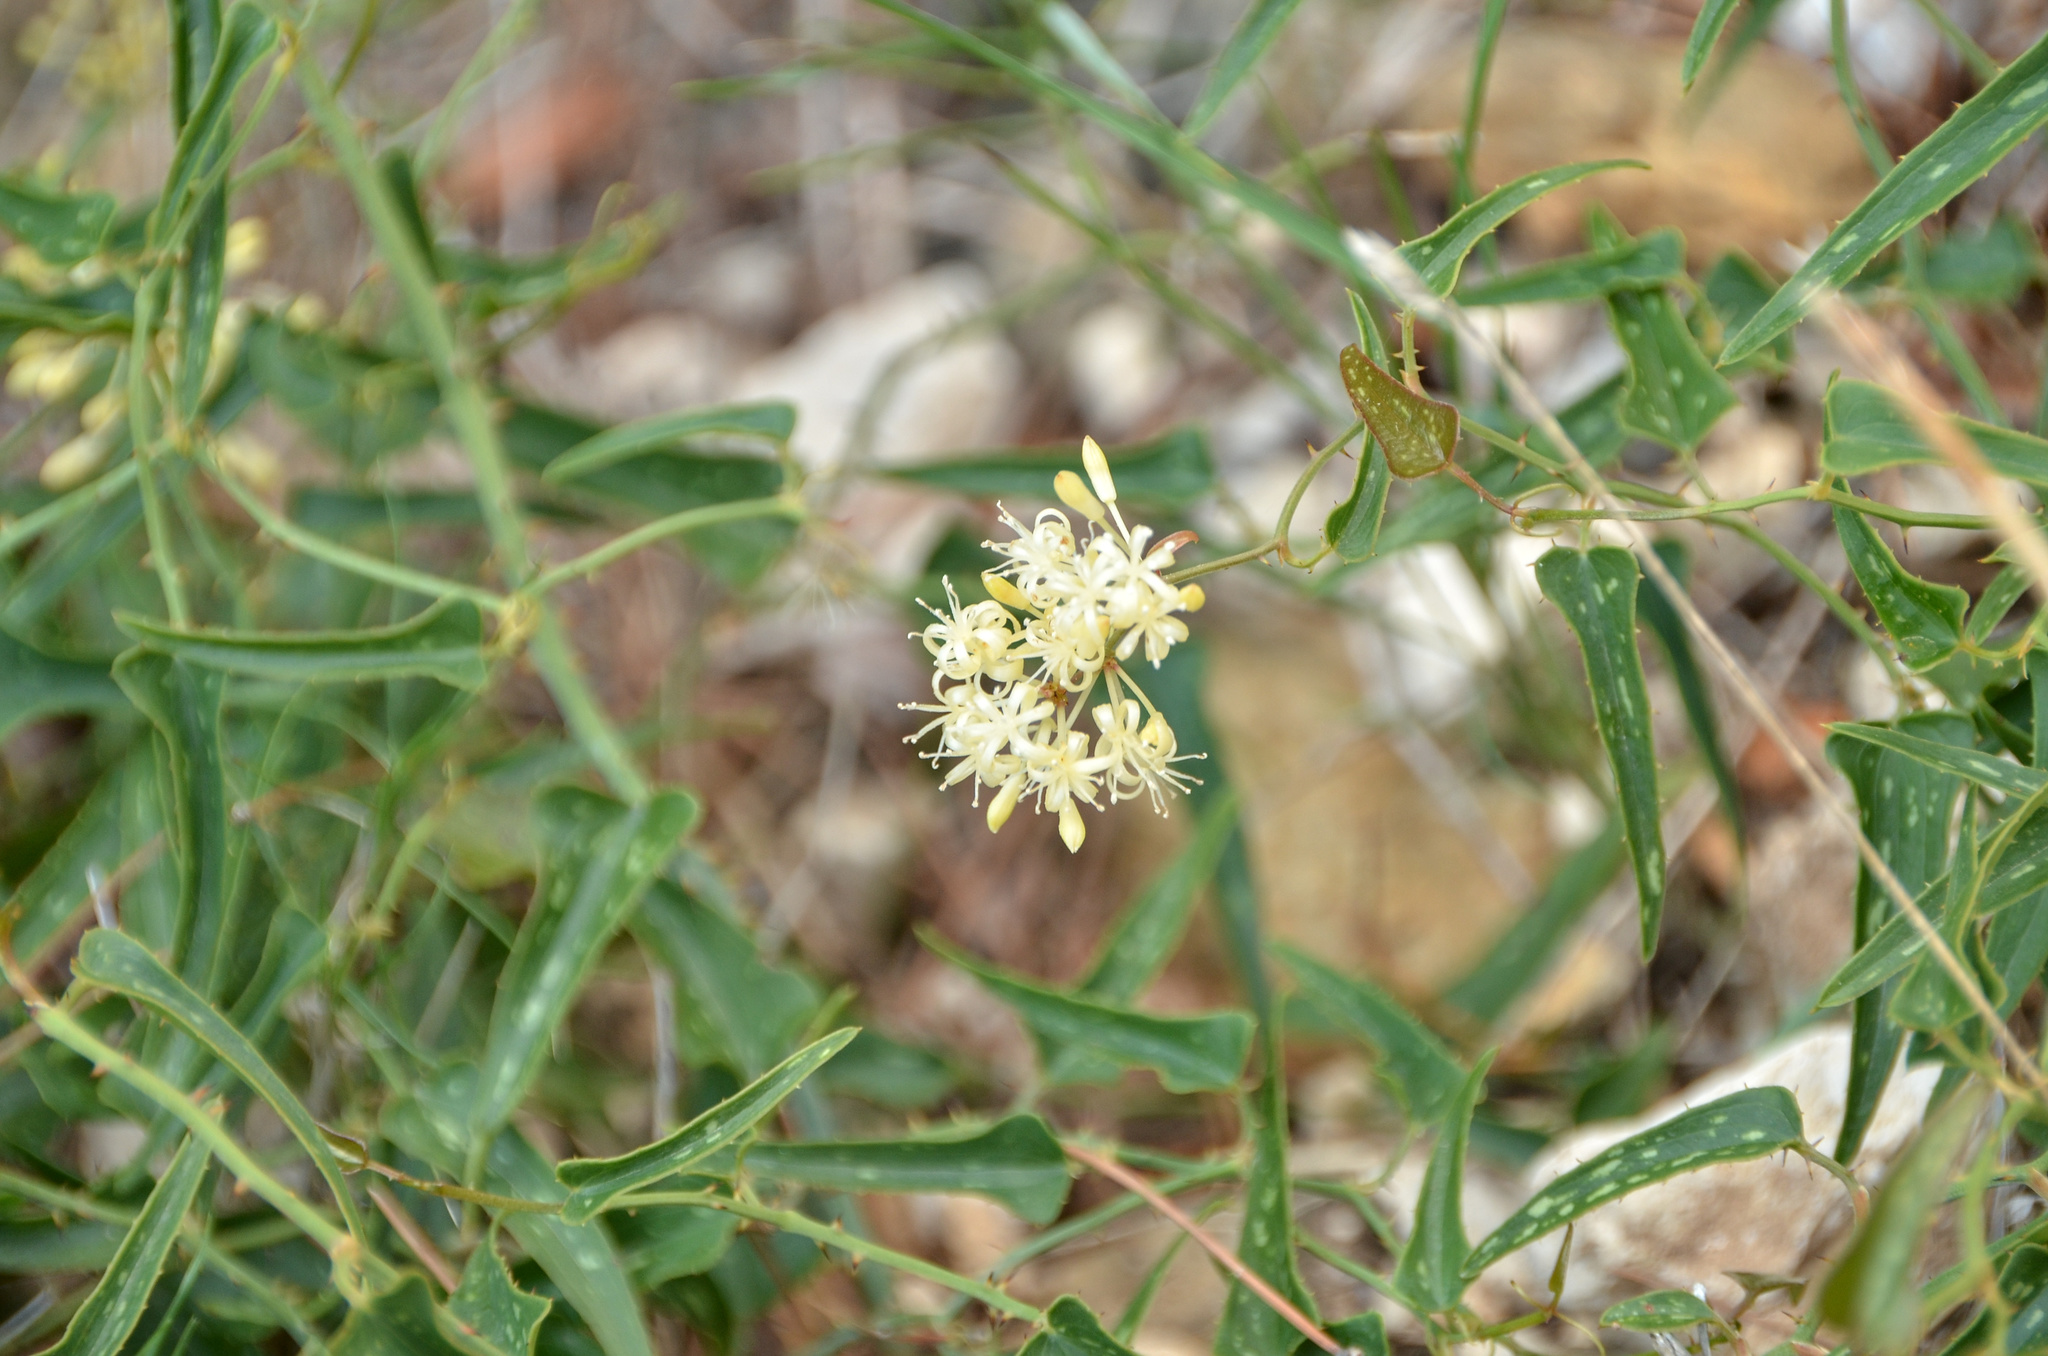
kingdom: Plantae
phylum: Tracheophyta
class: Liliopsida
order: Liliales
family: Smilacaceae
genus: Smilax
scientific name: Smilax aspera
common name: Common smilax
